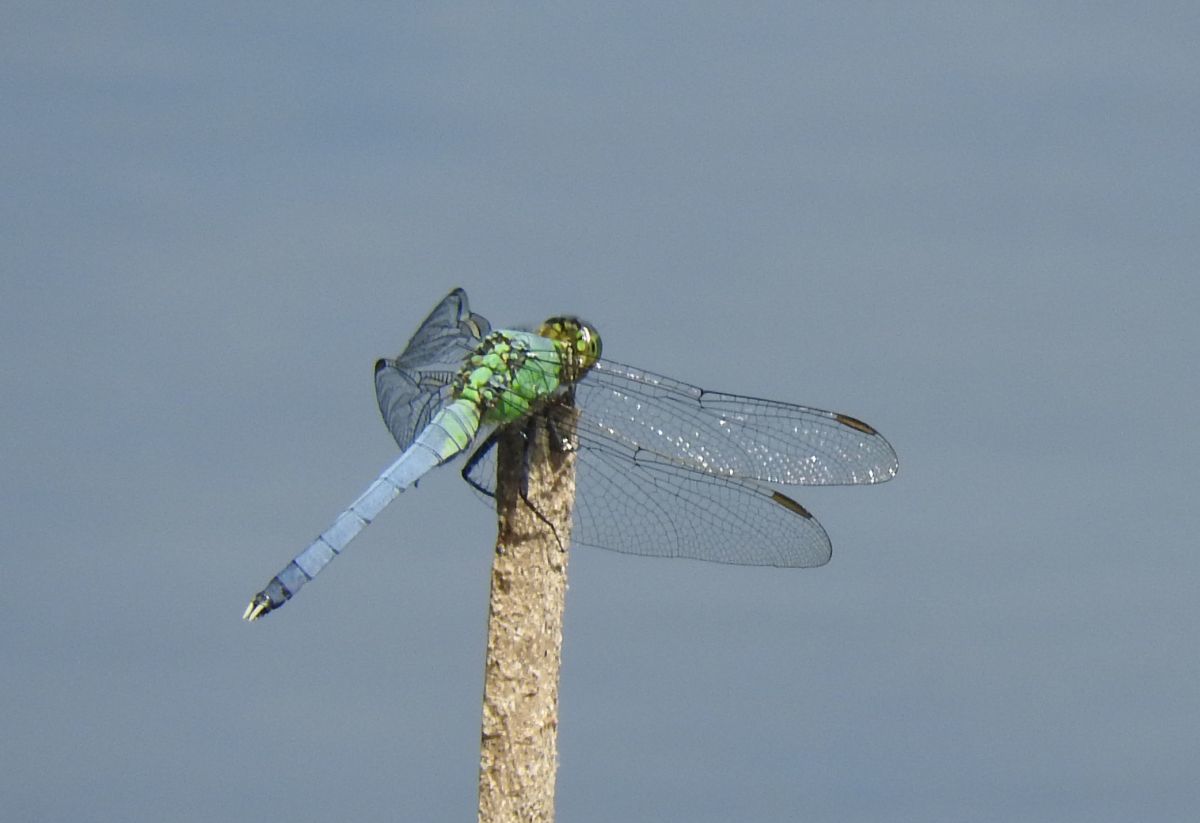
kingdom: Animalia
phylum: Arthropoda
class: Insecta
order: Odonata
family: Libellulidae
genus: Erythemis
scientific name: Erythemis simplicicollis
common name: Eastern pondhawk
